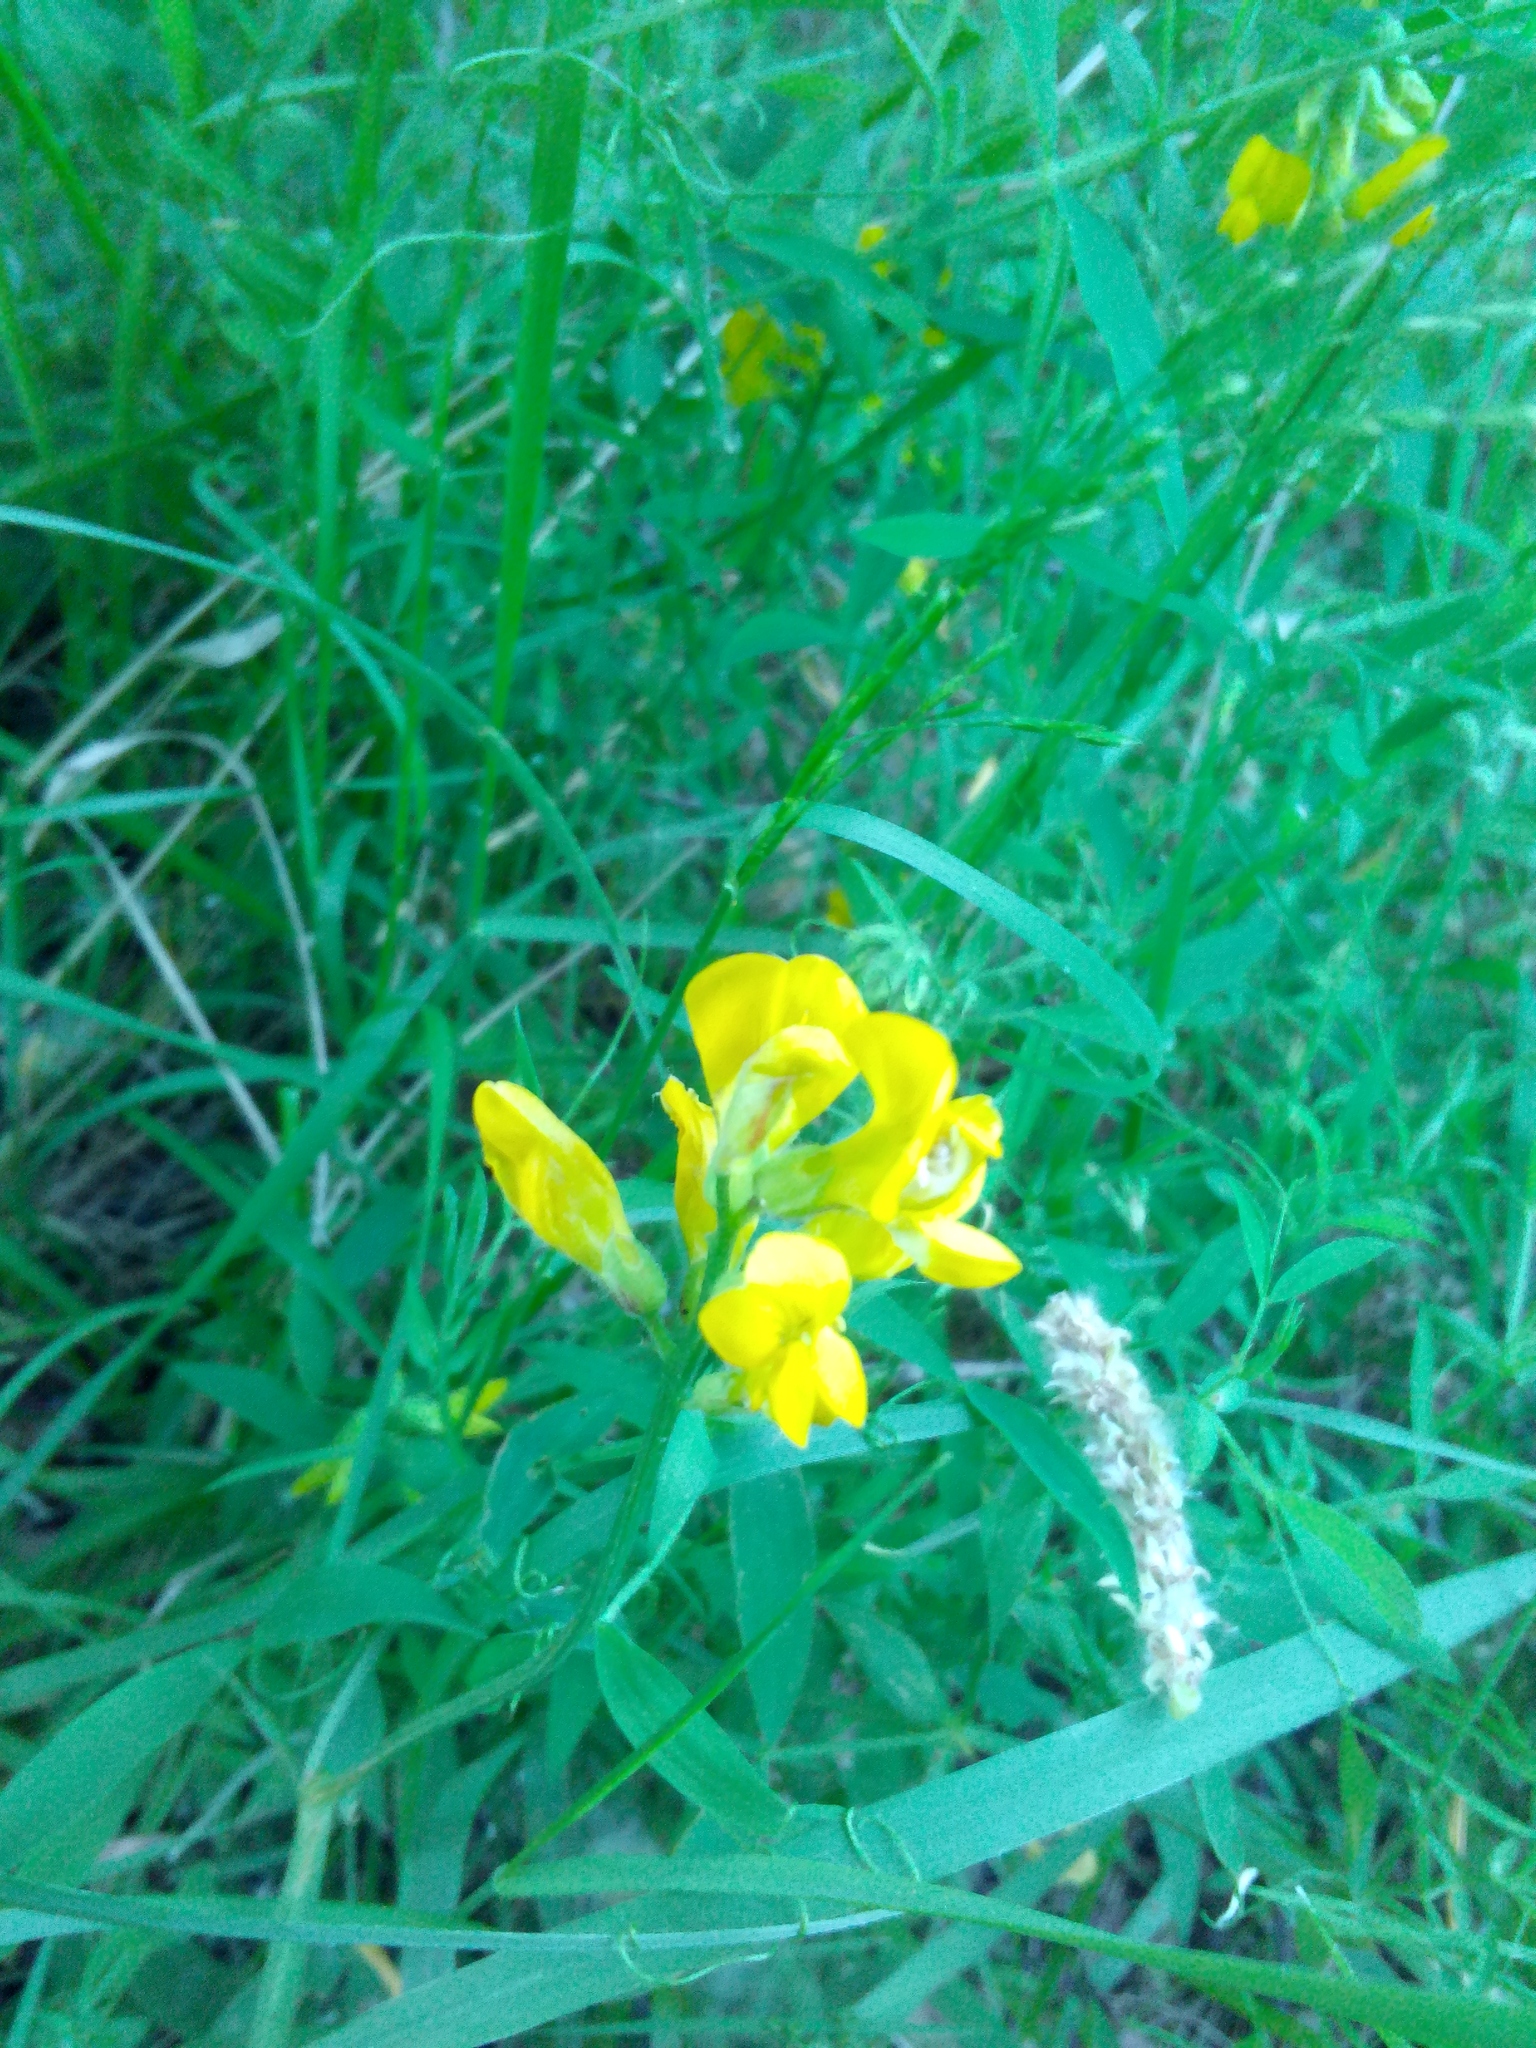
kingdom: Plantae
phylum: Tracheophyta
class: Magnoliopsida
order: Fabales
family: Fabaceae
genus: Lathyrus
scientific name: Lathyrus pratensis
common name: Meadow vetchling
